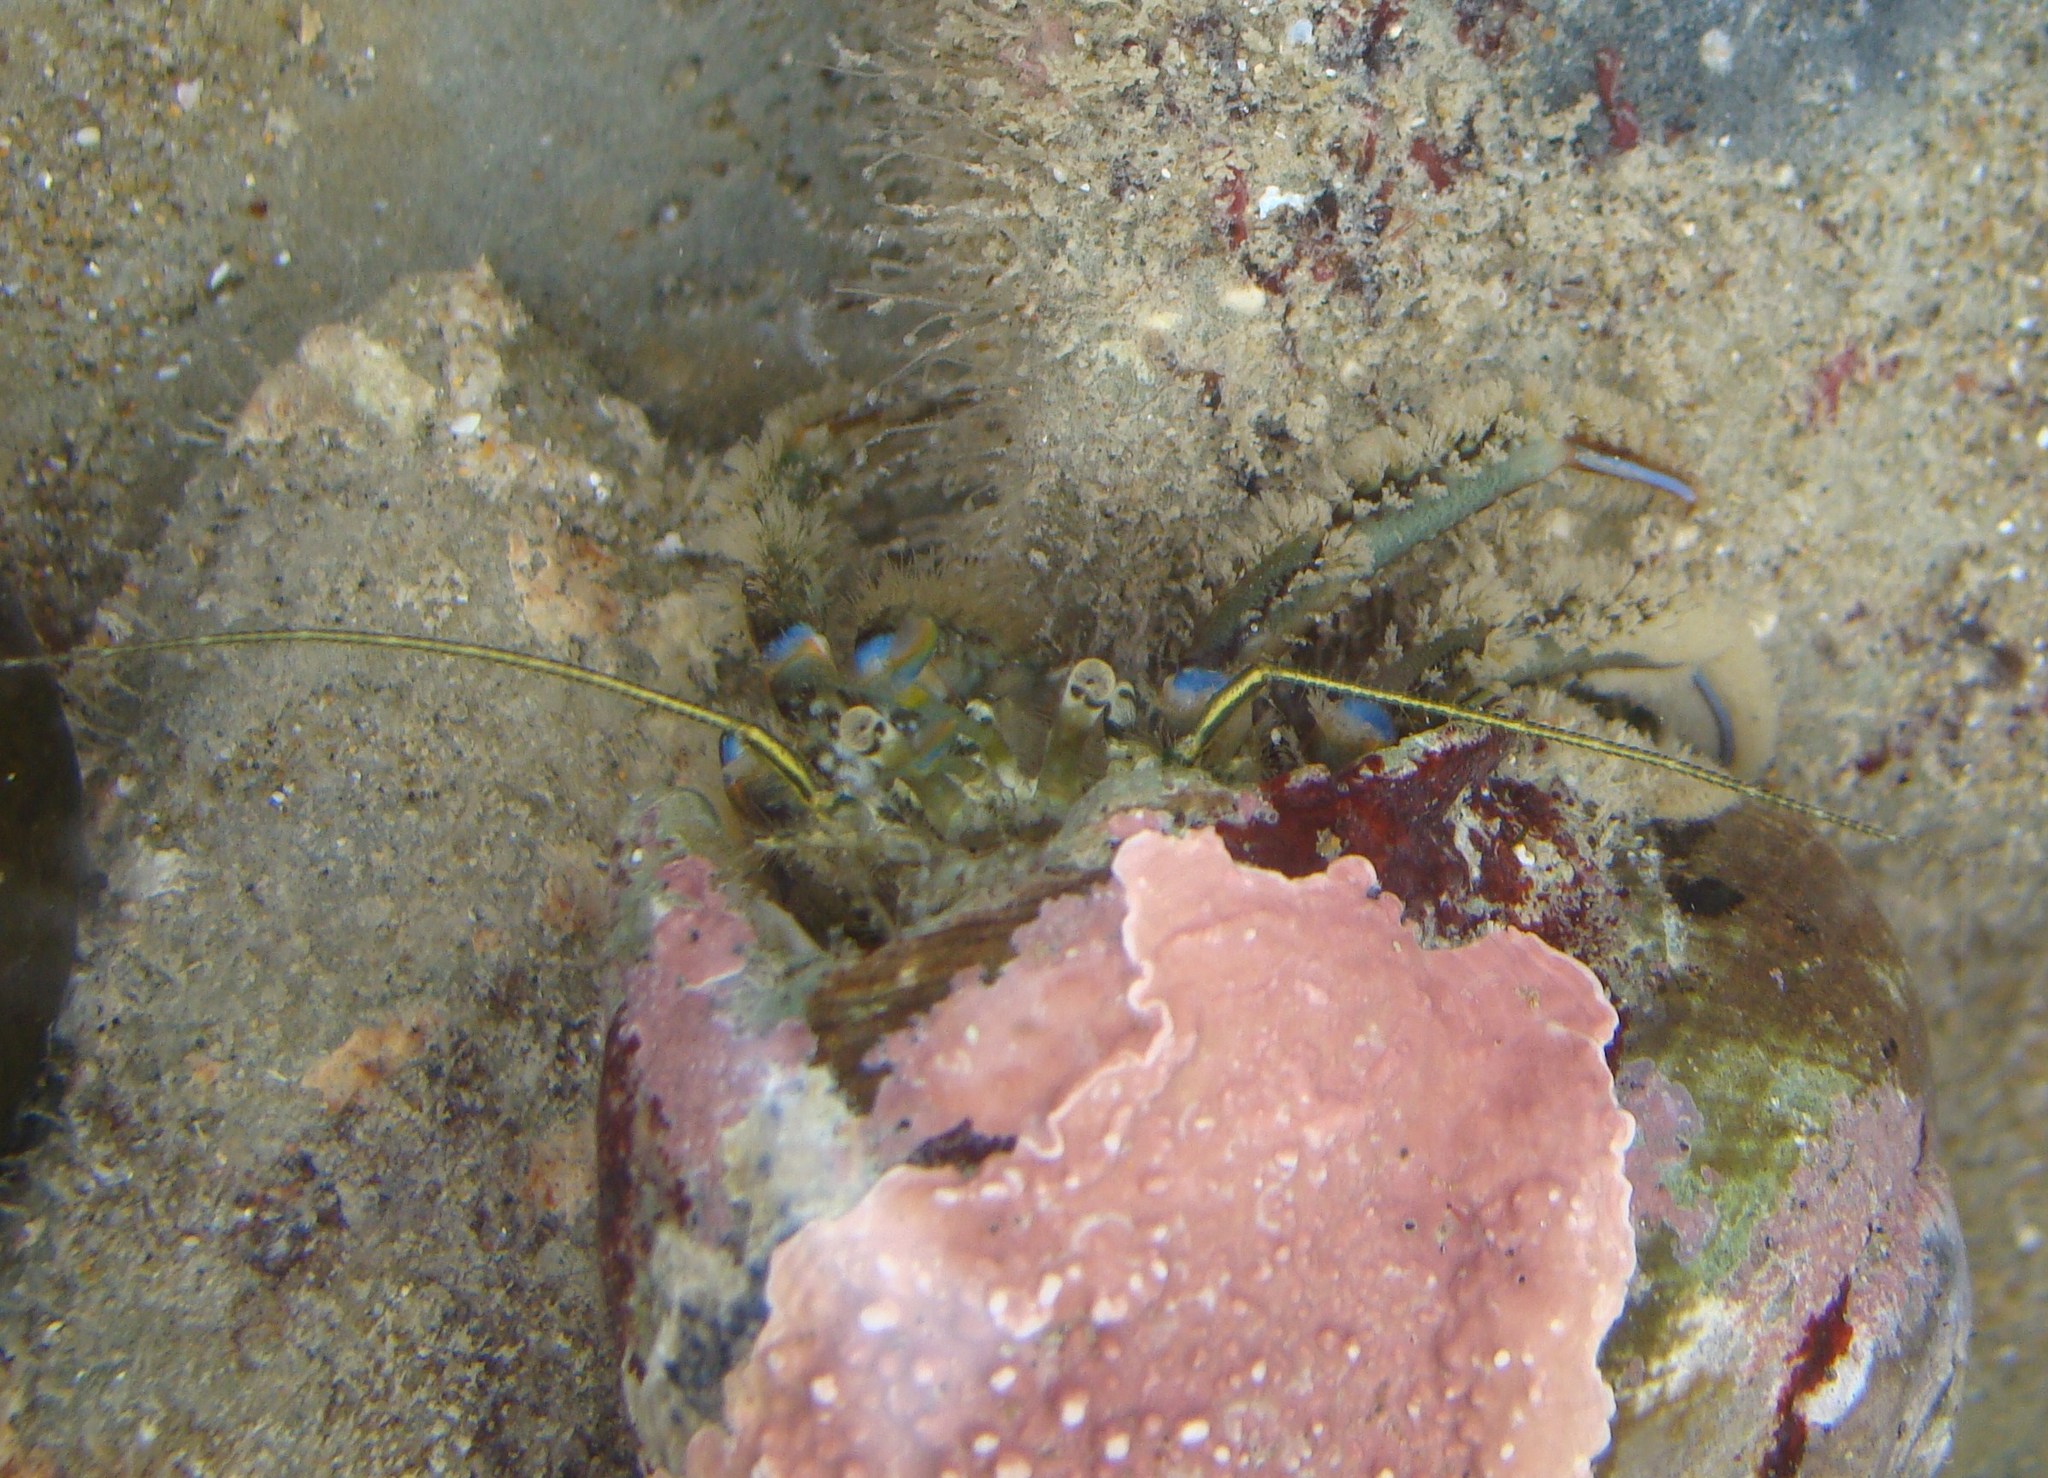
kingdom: Animalia
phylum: Arthropoda
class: Malacostraca
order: Decapoda
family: Paguridae
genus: Pagurus
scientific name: Pagurus novizealandiae
